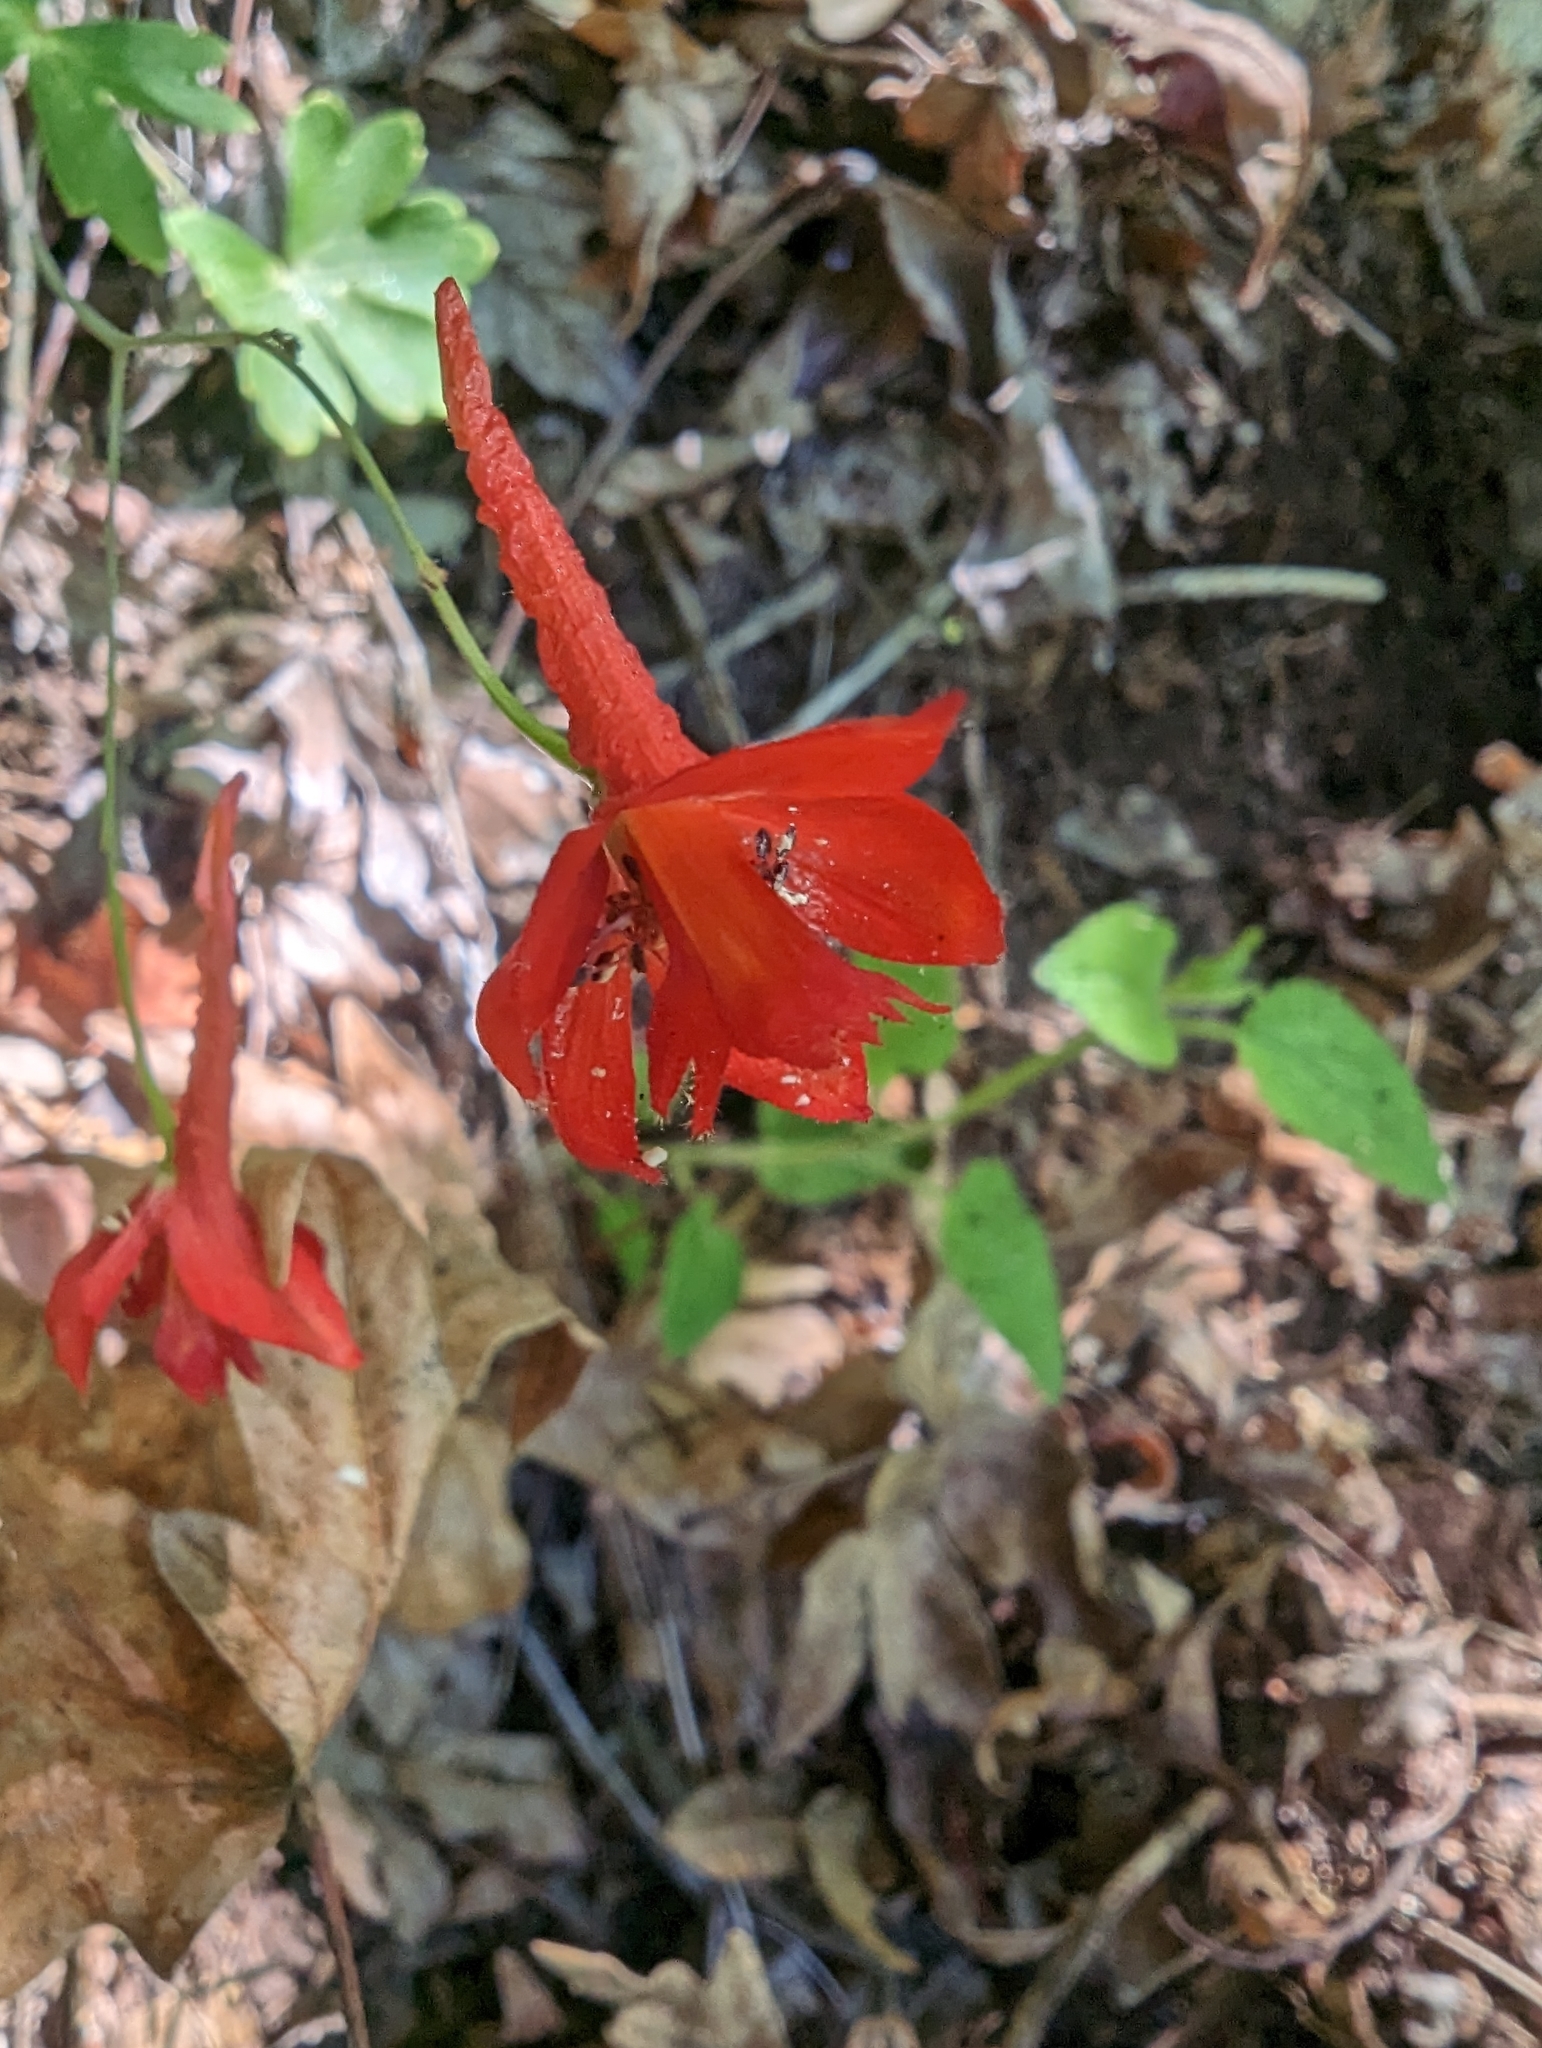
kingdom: Plantae
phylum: Tracheophyta
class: Magnoliopsida
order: Ranunculales
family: Ranunculaceae
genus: Delphinium
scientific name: Delphinium nudicaule
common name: Red larkspur
